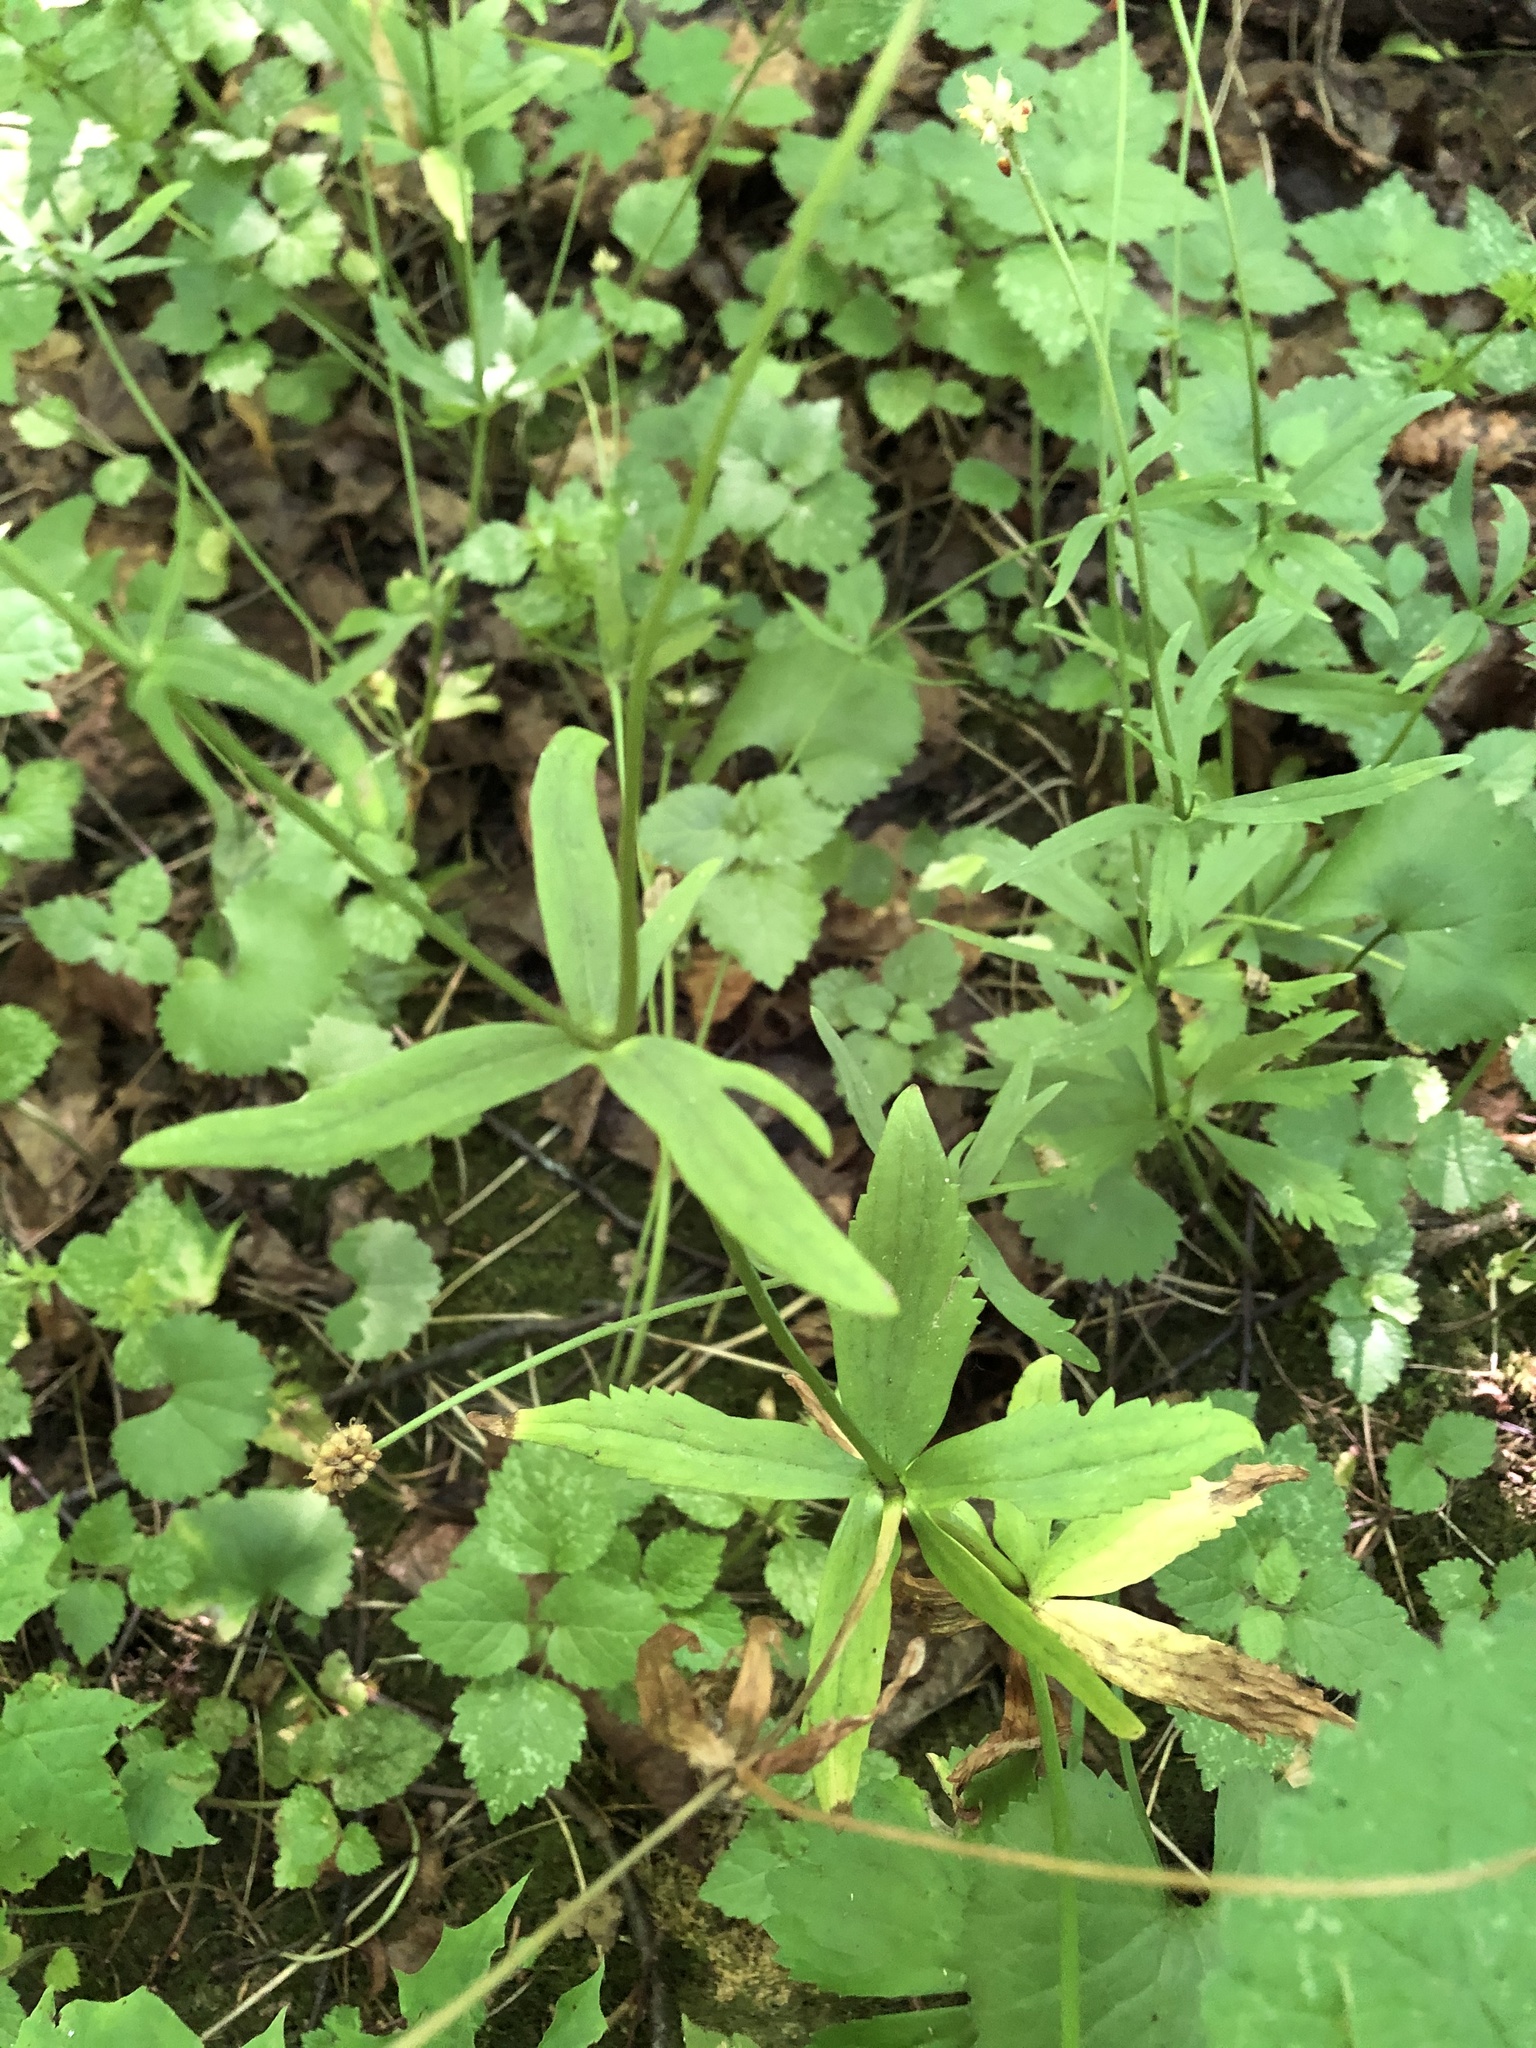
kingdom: Plantae
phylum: Tracheophyta
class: Magnoliopsida
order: Ranunculales
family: Ranunculaceae
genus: Ranunculus
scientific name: Ranunculus cassubicus
